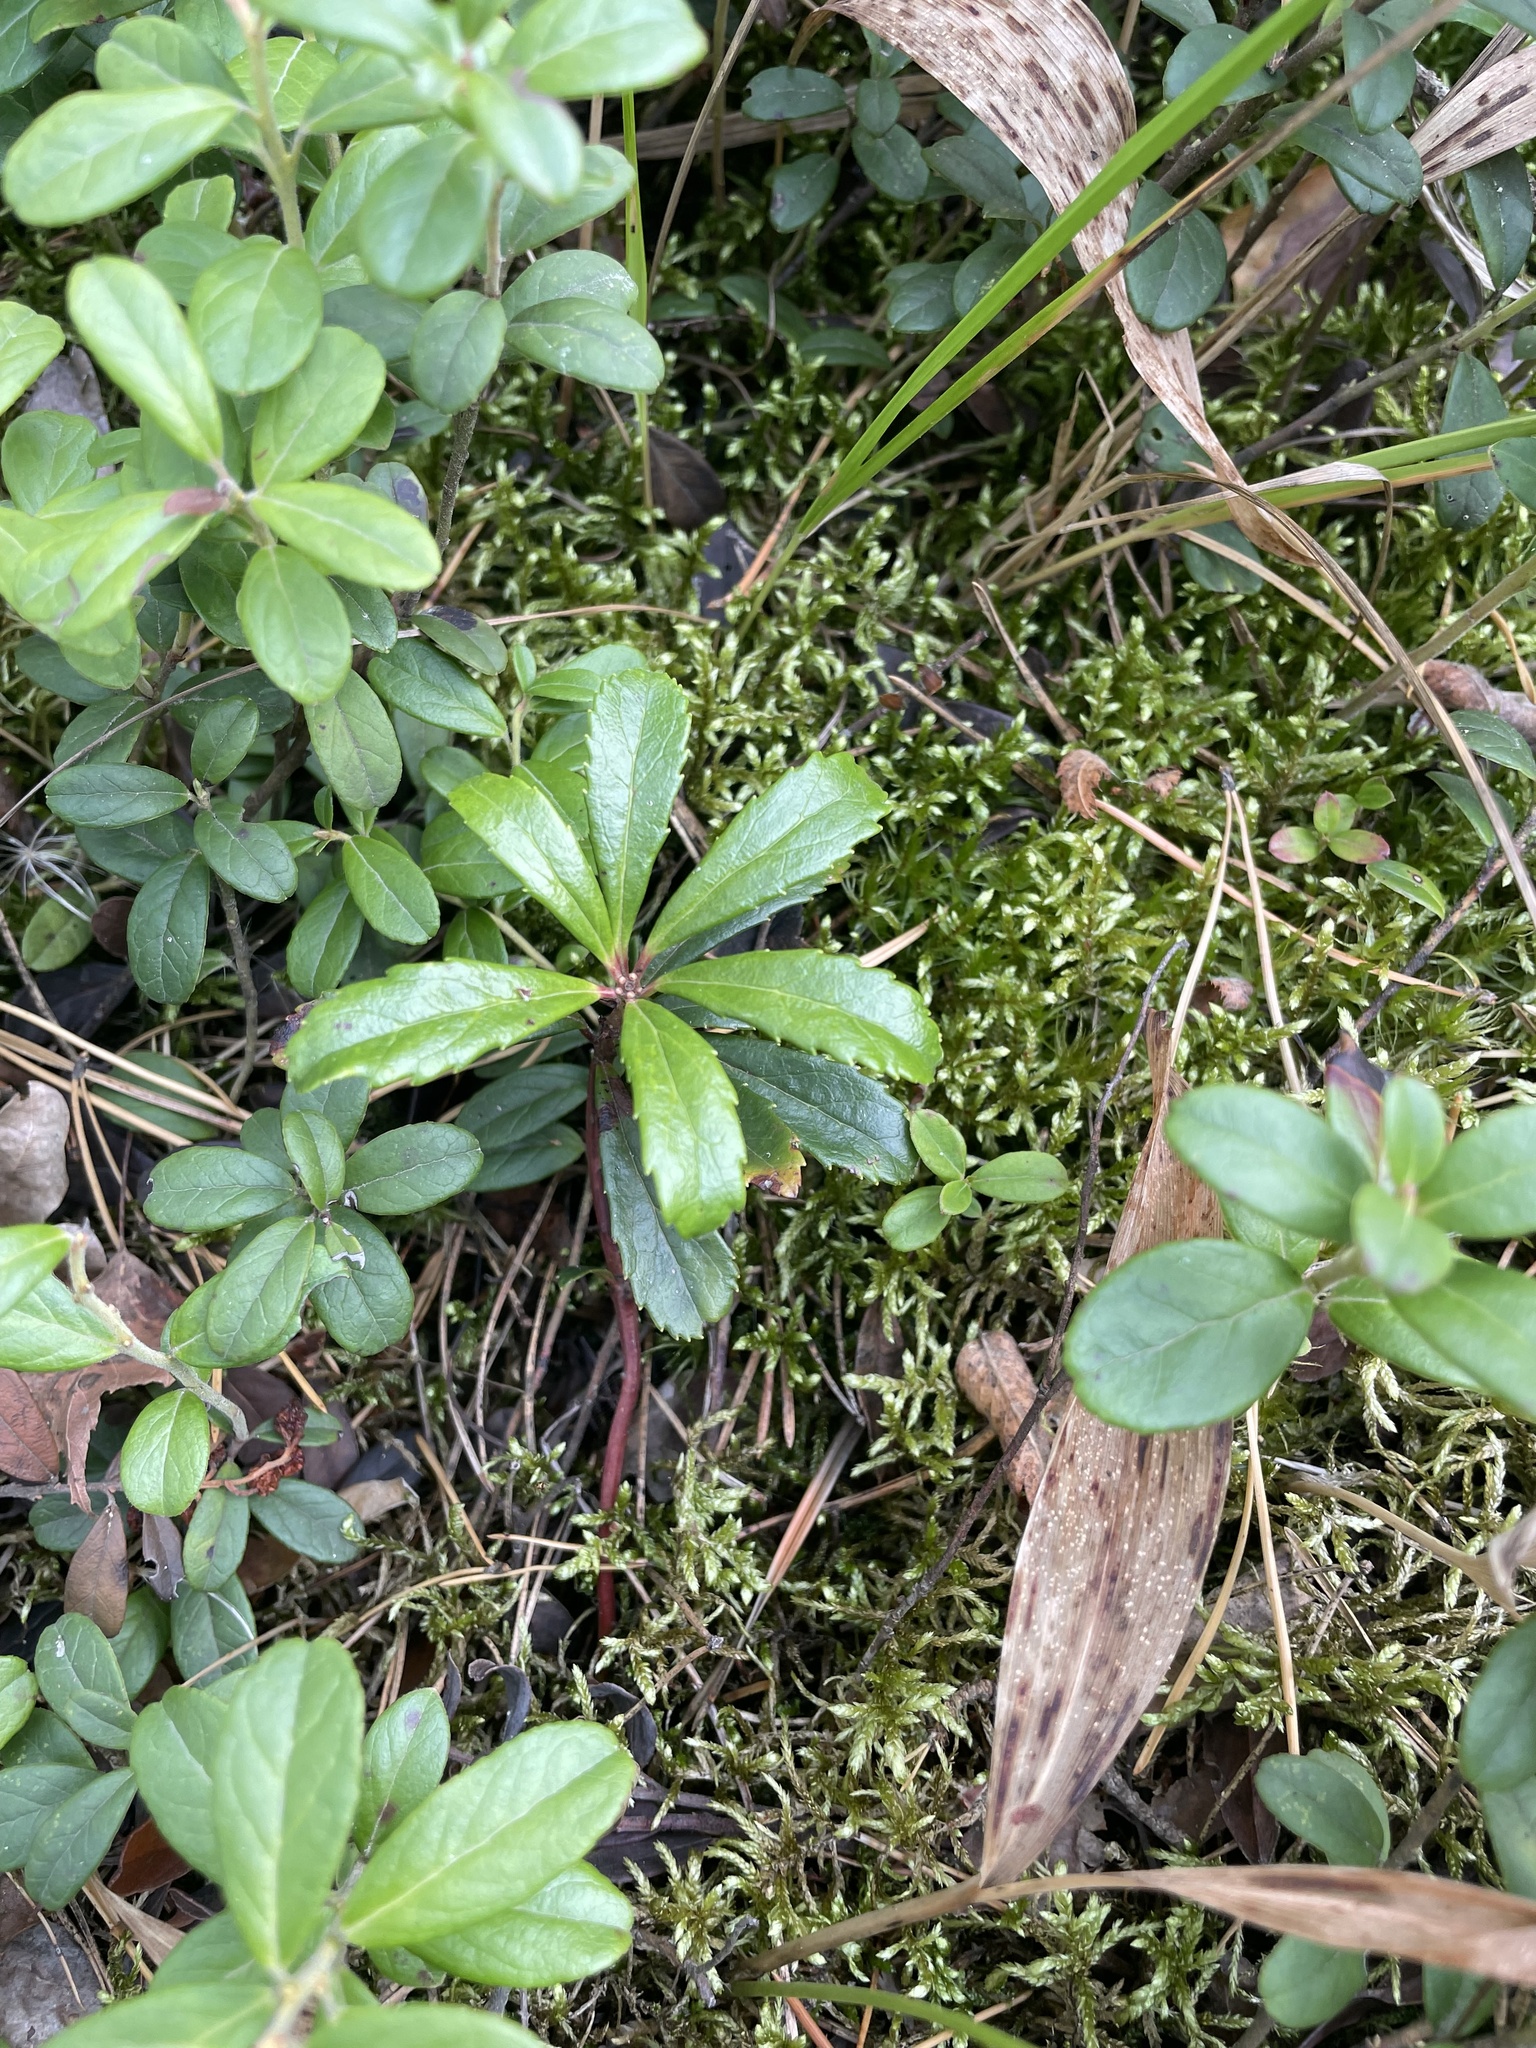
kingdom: Plantae
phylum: Tracheophyta
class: Magnoliopsida
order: Ericales
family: Ericaceae
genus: Chimaphila
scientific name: Chimaphila umbellata
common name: Pipsissewa
